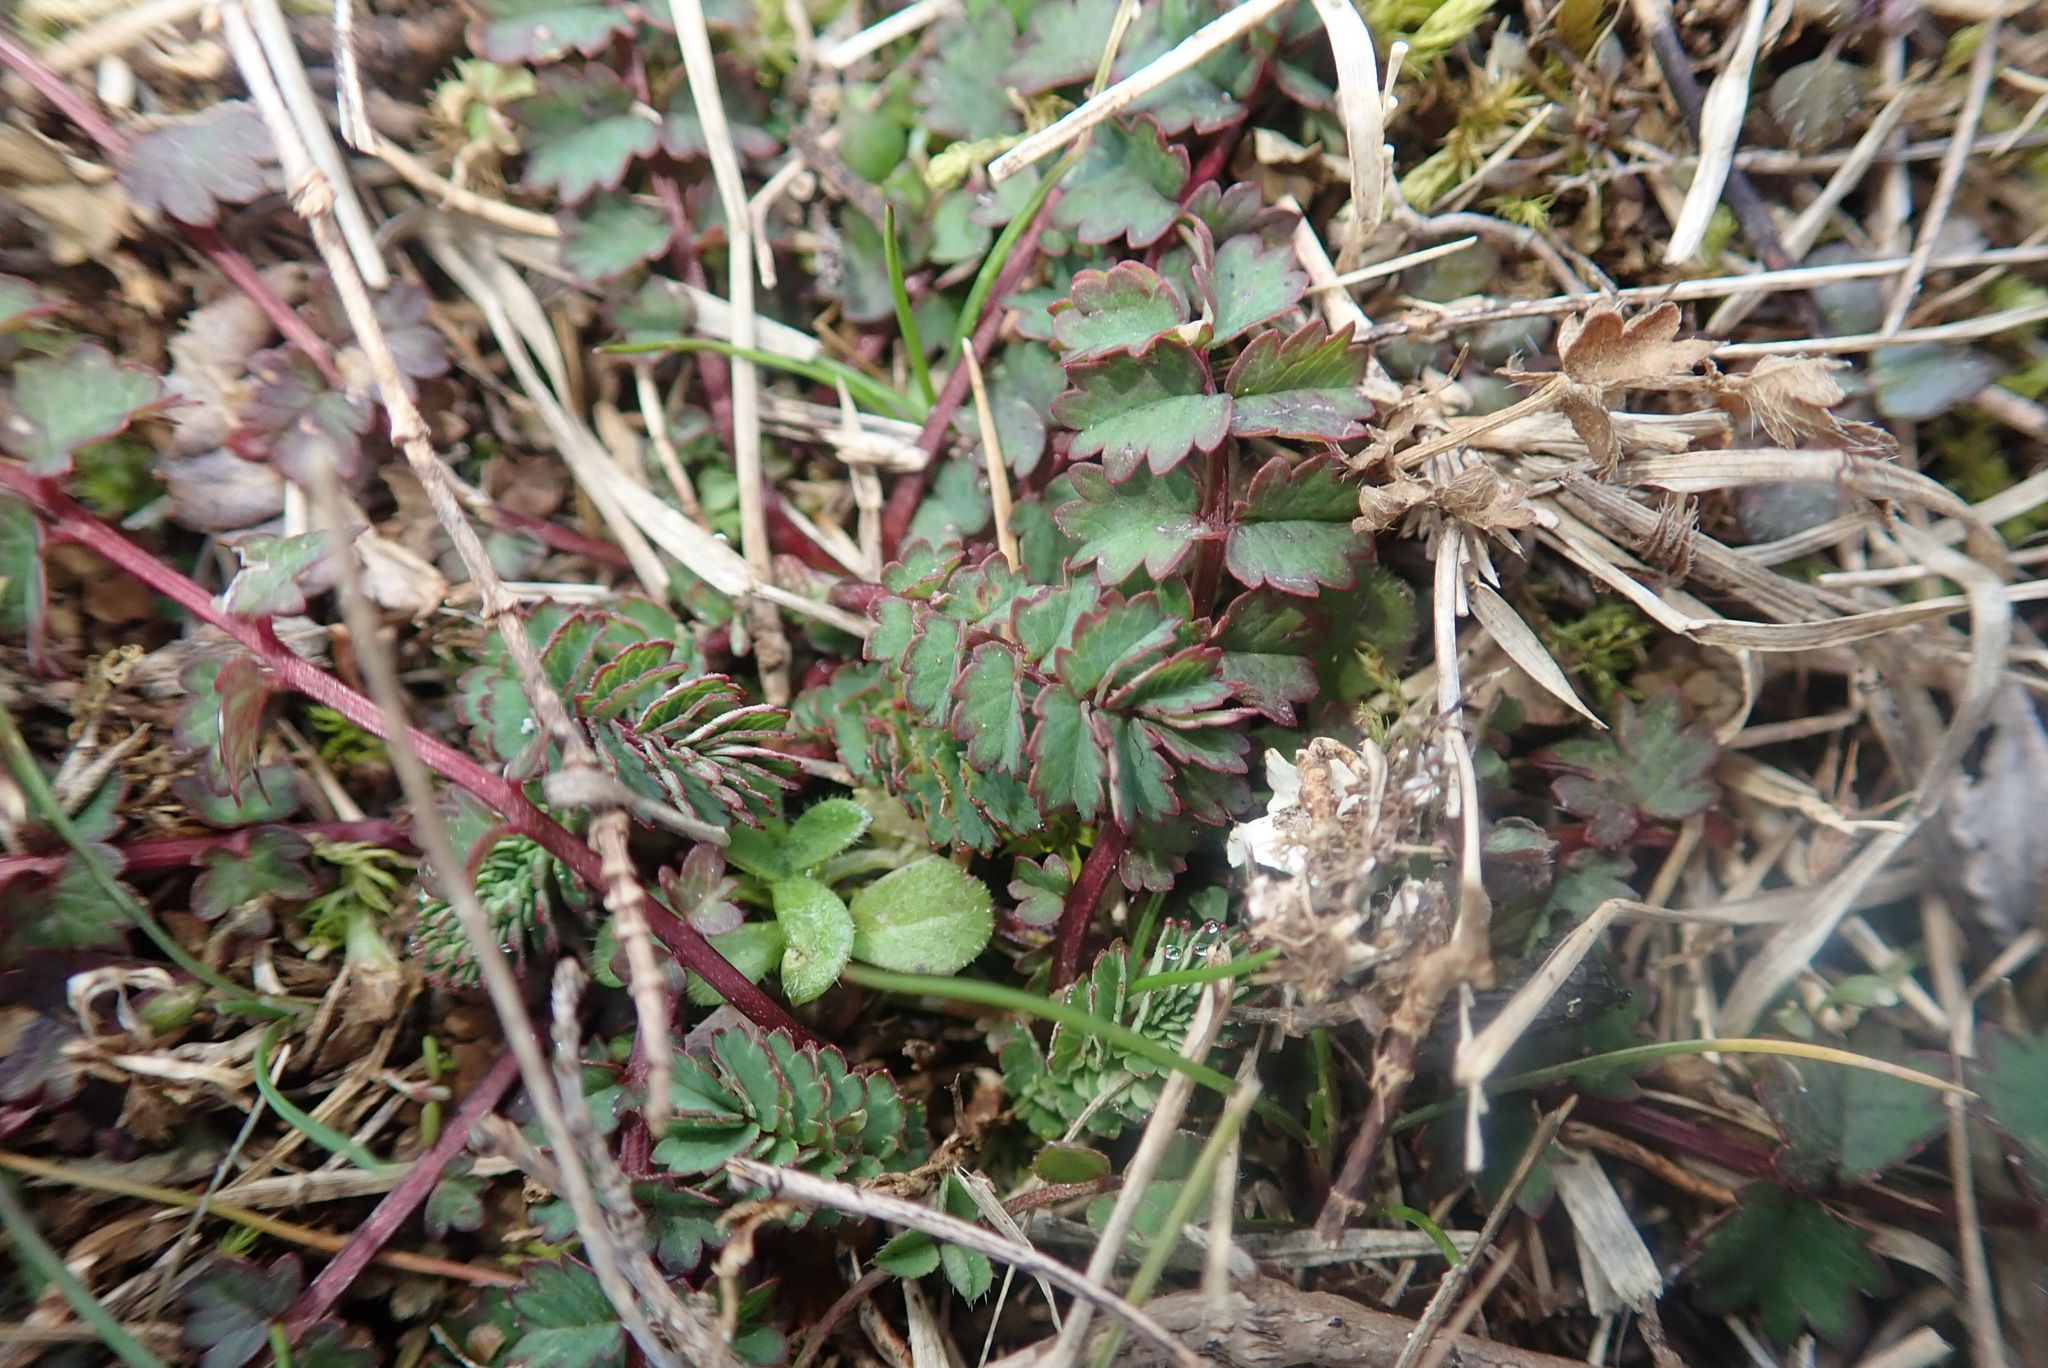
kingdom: Plantae
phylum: Tracheophyta
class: Magnoliopsida
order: Rosales
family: Rosaceae
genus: Poterium
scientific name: Poterium sanguisorba
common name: Salad burnet
